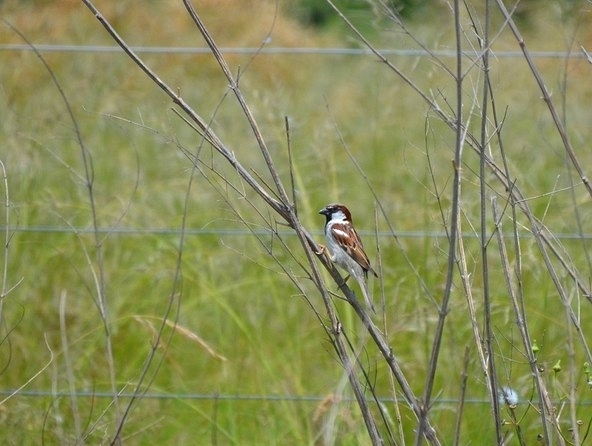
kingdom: Animalia
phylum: Chordata
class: Aves
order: Passeriformes
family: Passeridae
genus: Passer
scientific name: Passer domesticus
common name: House sparrow
